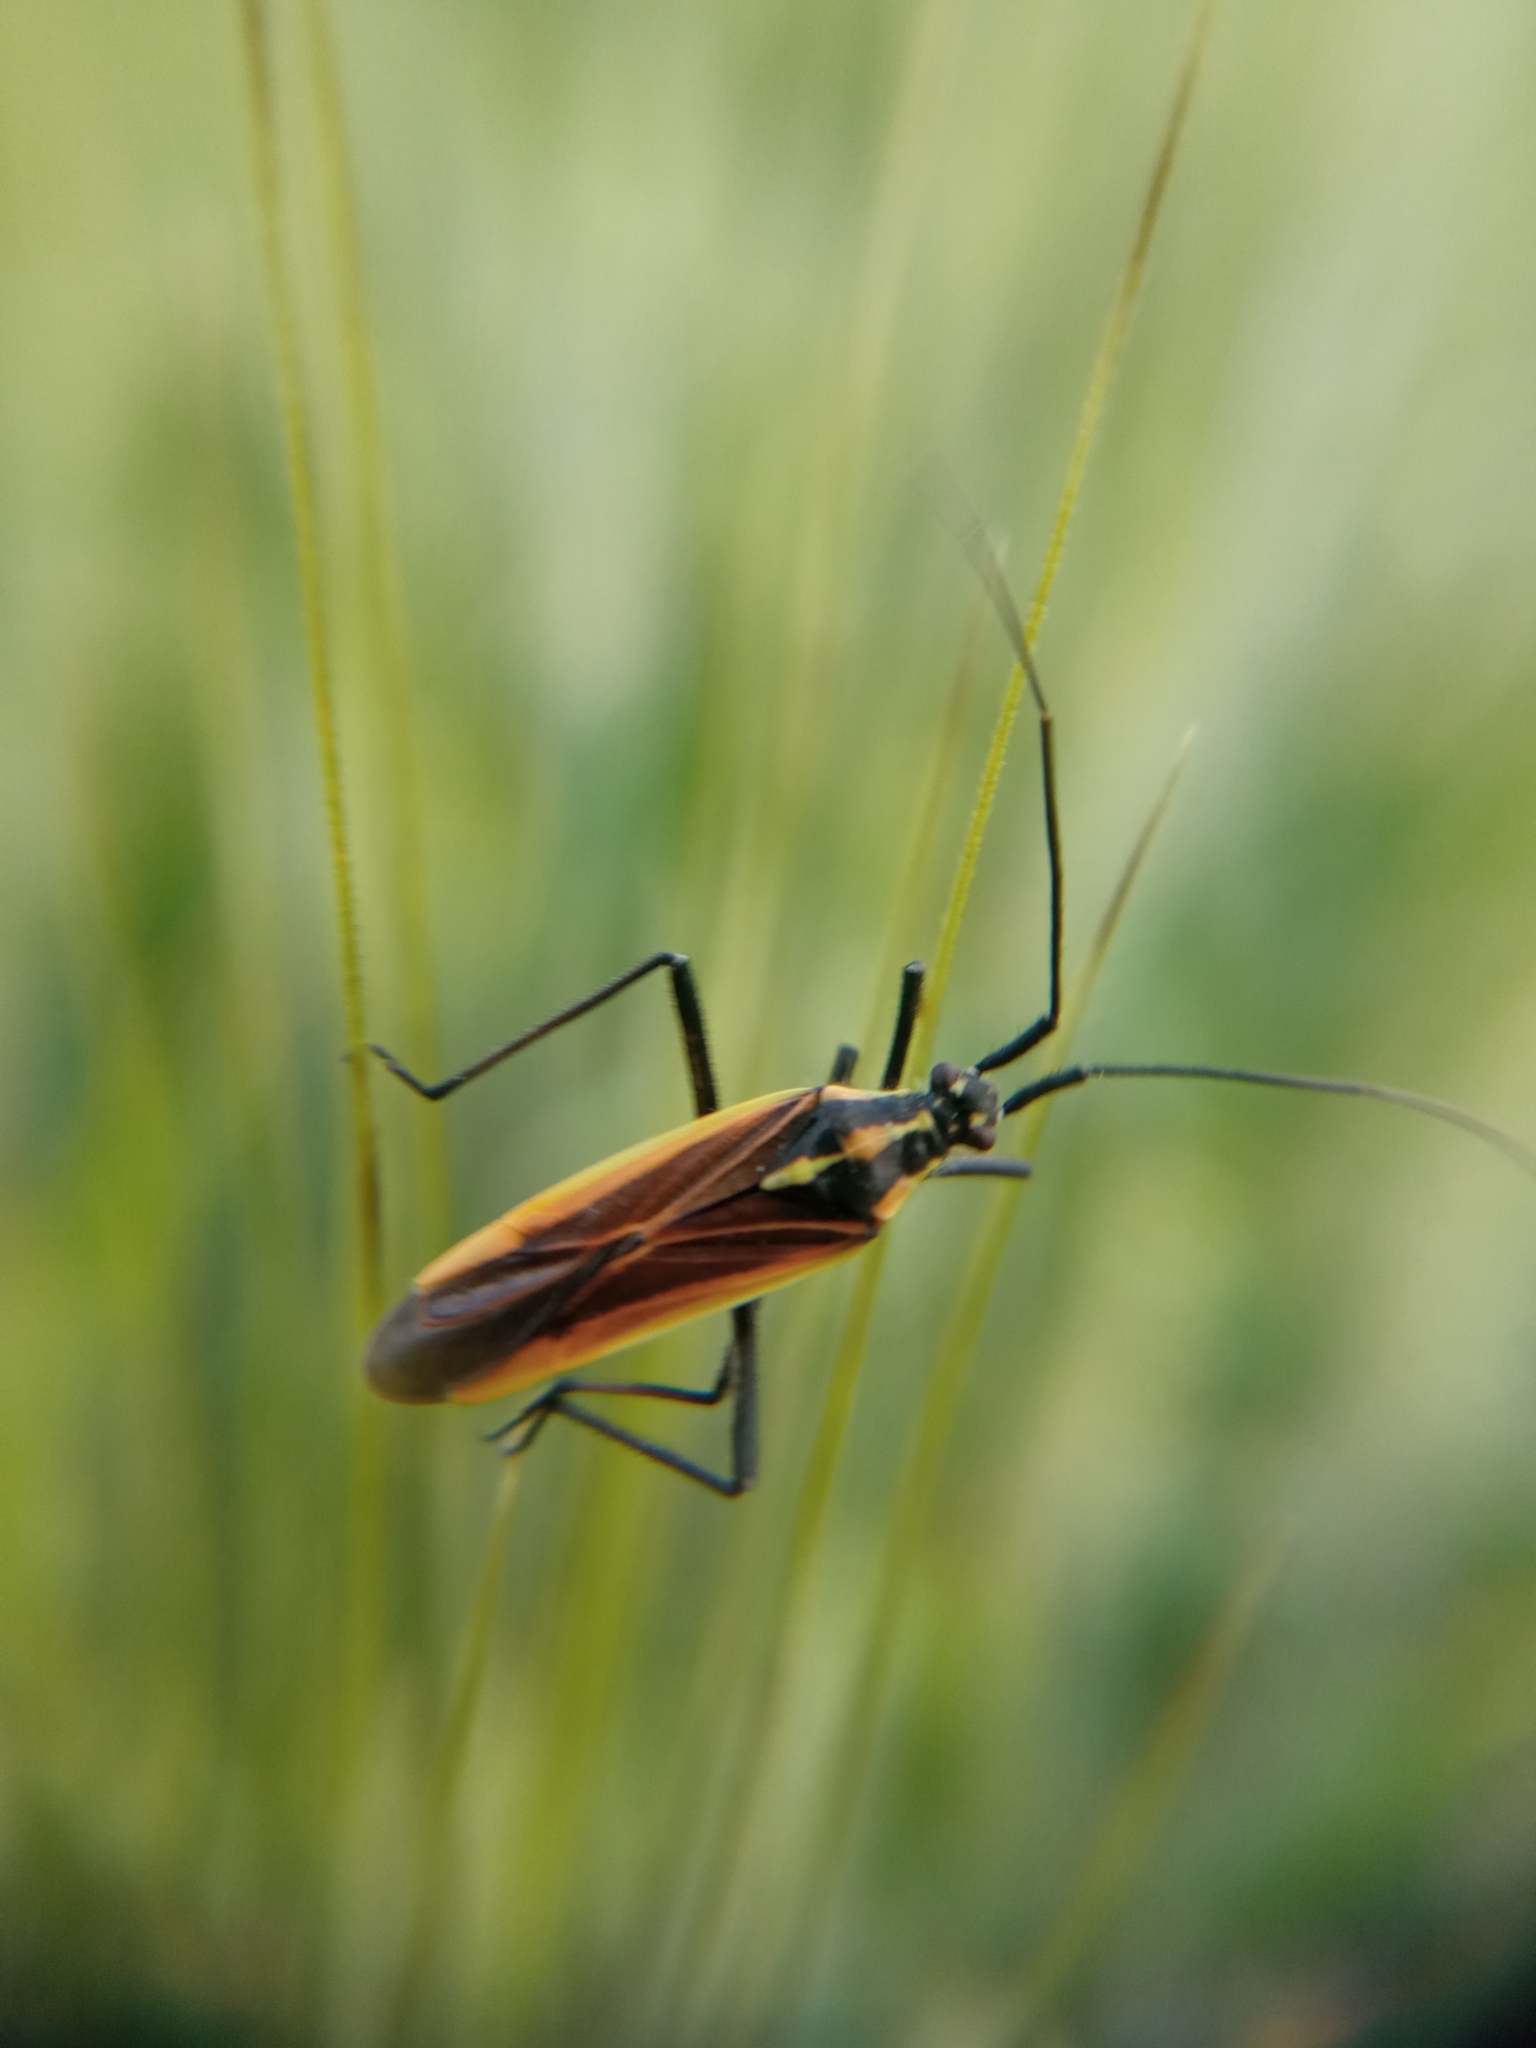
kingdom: Animalia
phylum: Arthropoda
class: Insecta
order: Hemiptera
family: Miridae
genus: Leptopterna
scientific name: Leptopterna dolabrata
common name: Meadow plant bug
